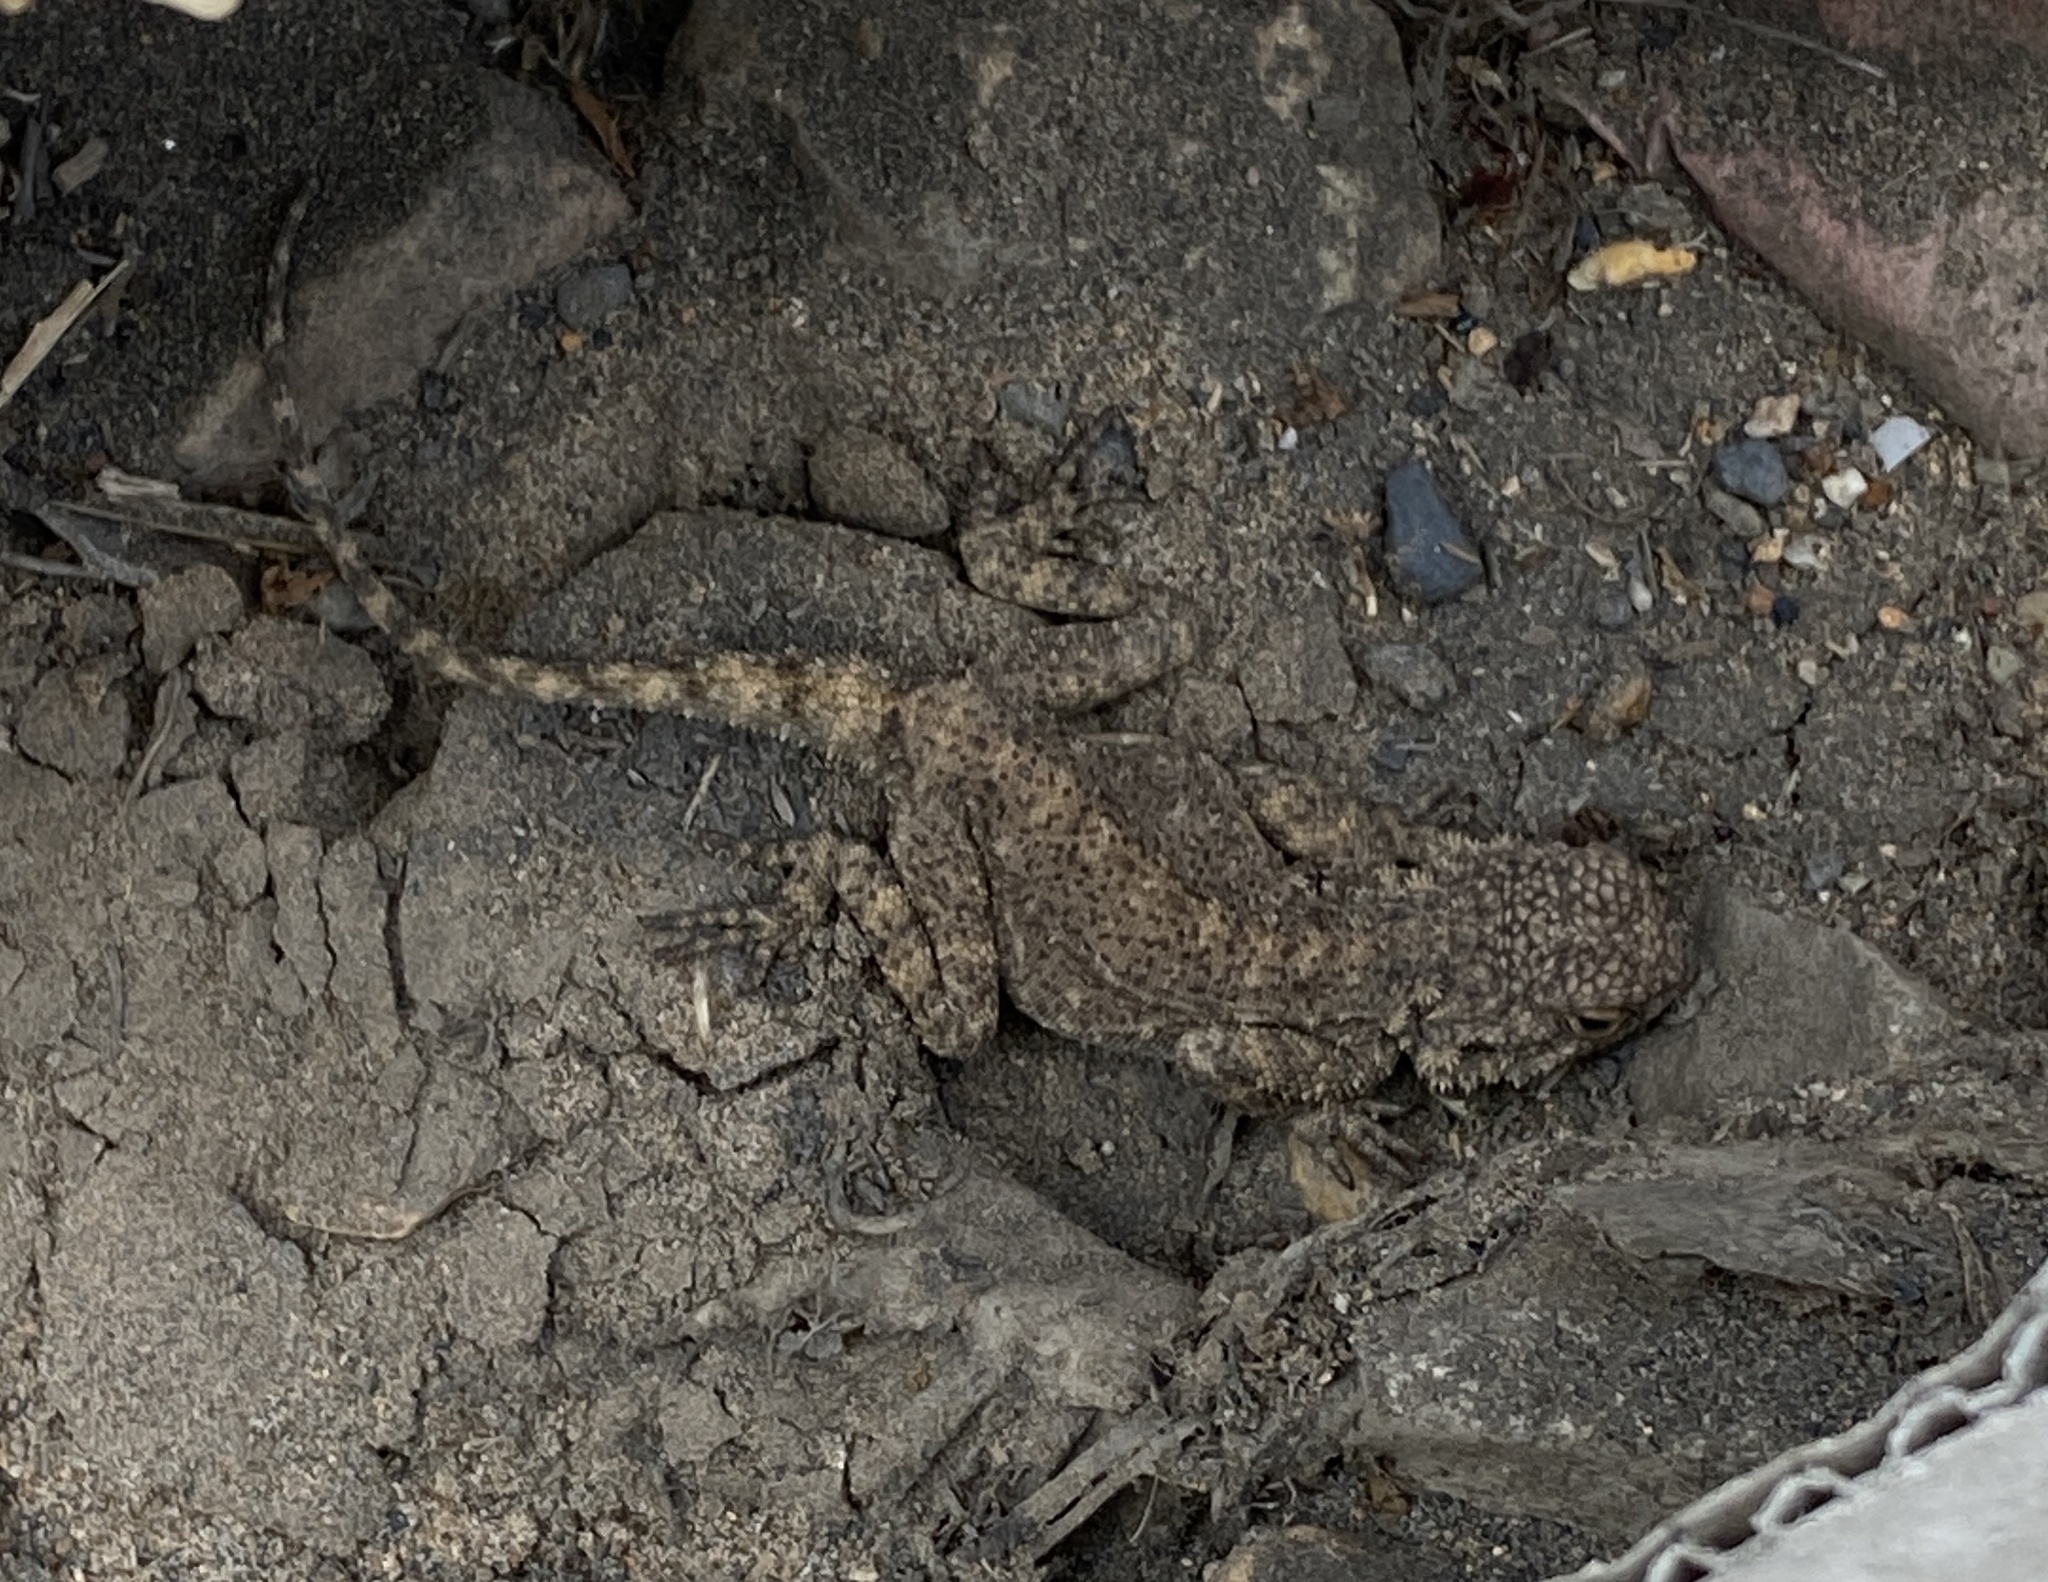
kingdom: Animalia
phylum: Chordata
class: Squamata
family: Agamidae
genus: Agama
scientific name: Agama atra
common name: Southern african rock agama
